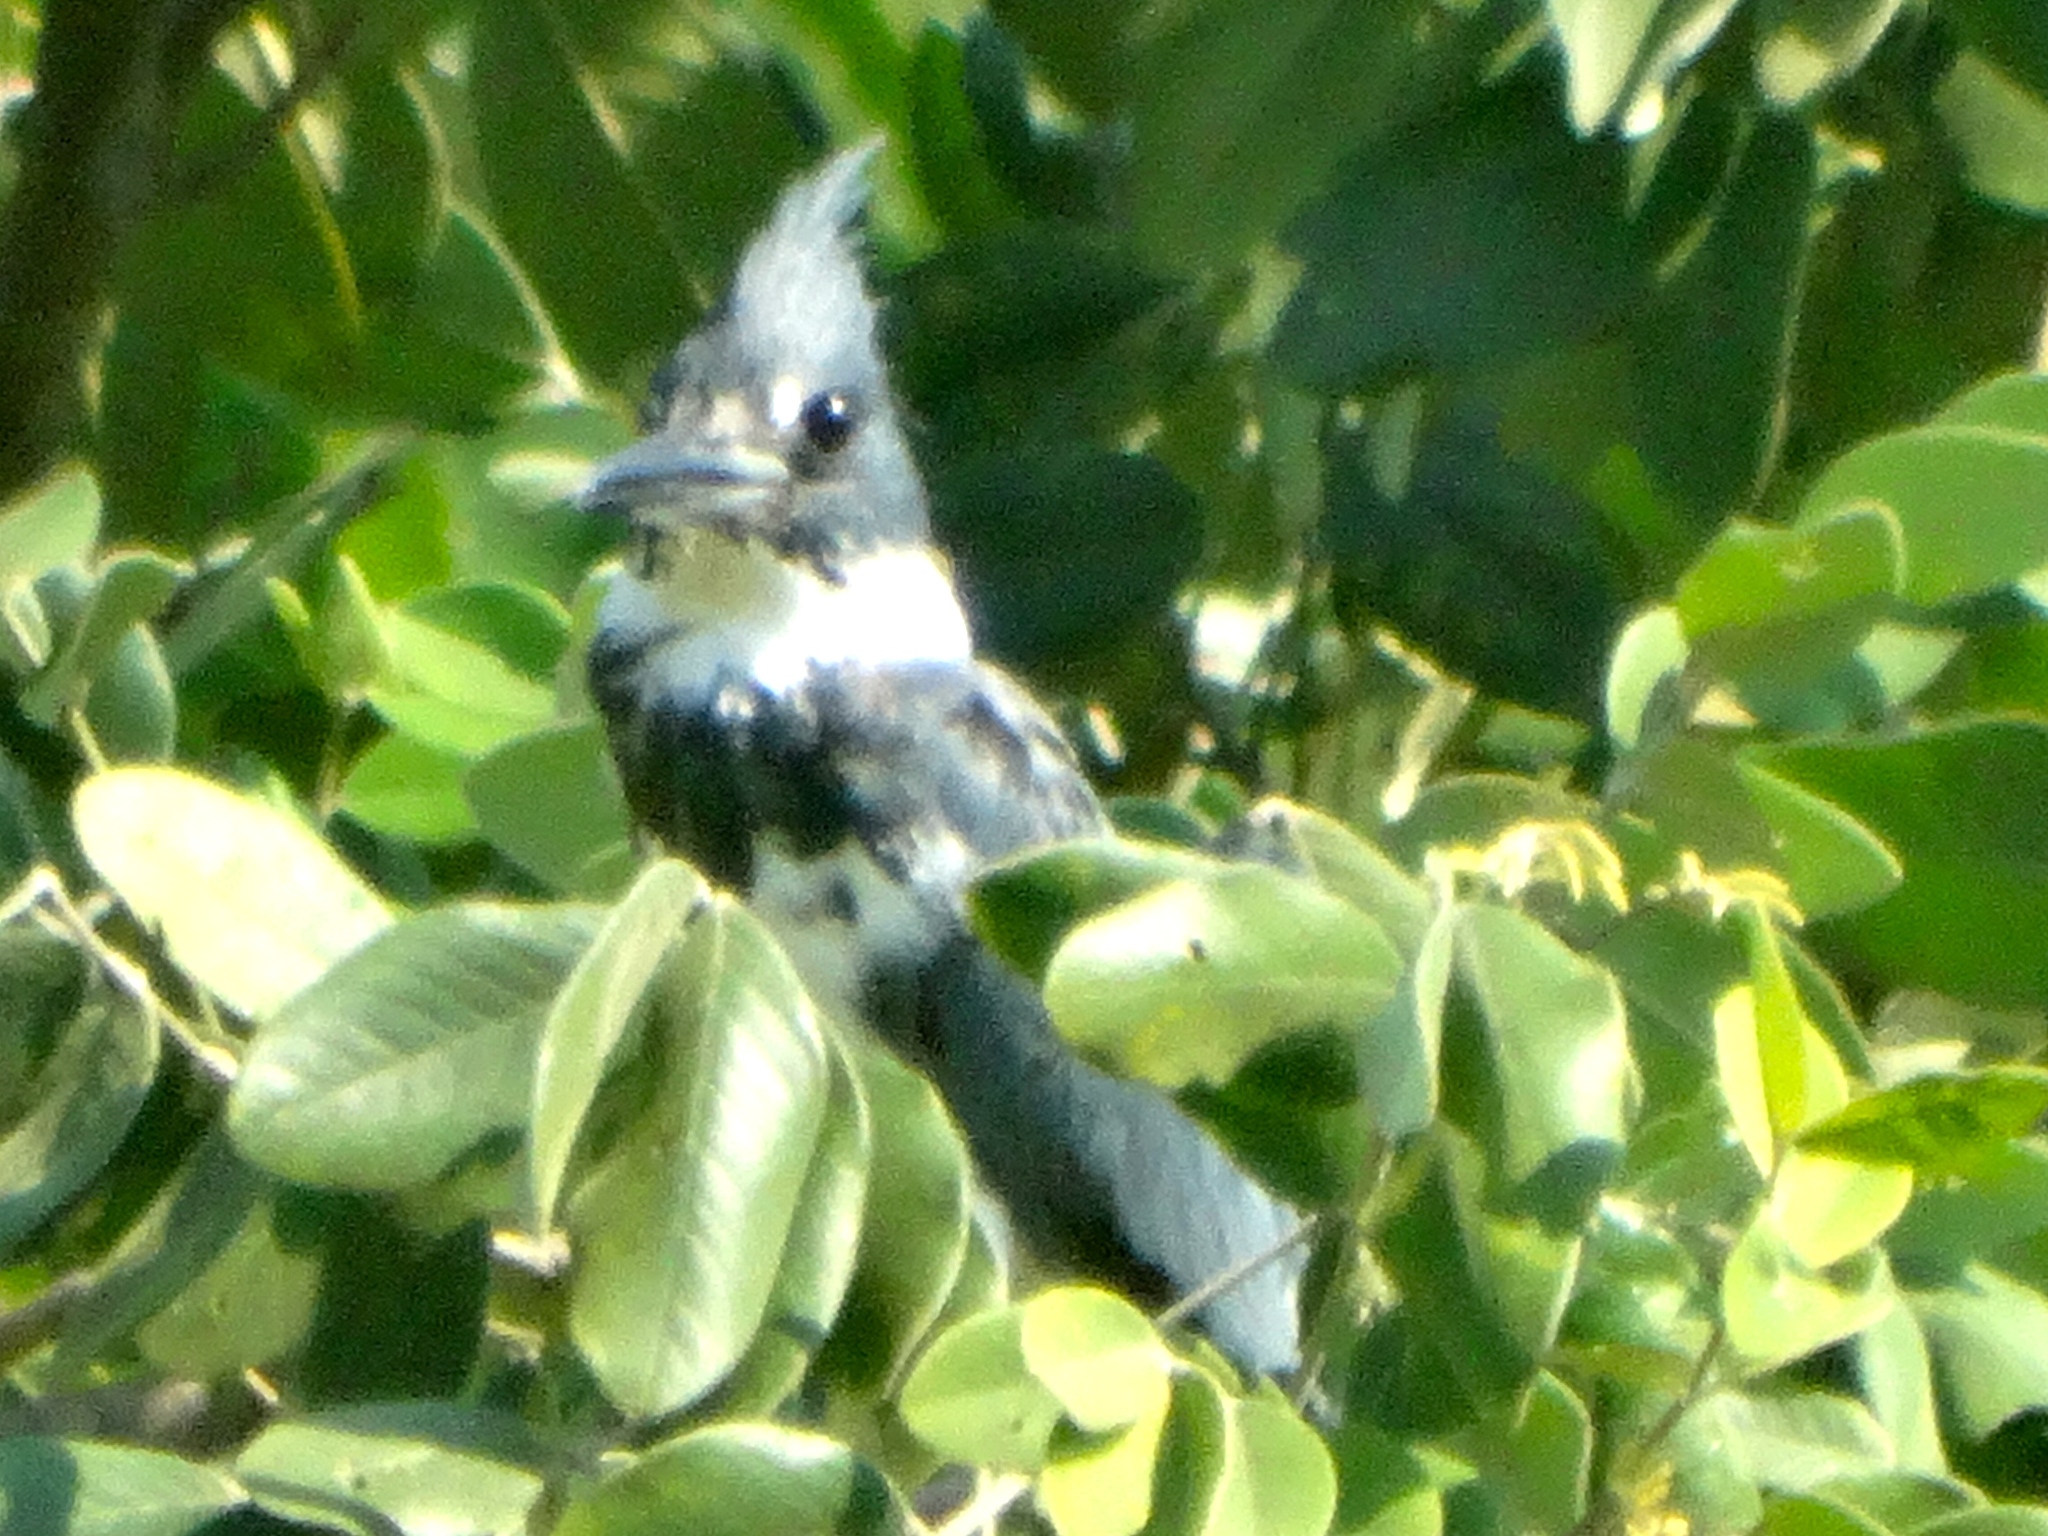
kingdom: Animalia
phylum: Chordata
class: Aves
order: Coraciiformes
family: Alcedinidae
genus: Megaceryle
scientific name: Megaceryle alcyon
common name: Belted kingfisher
